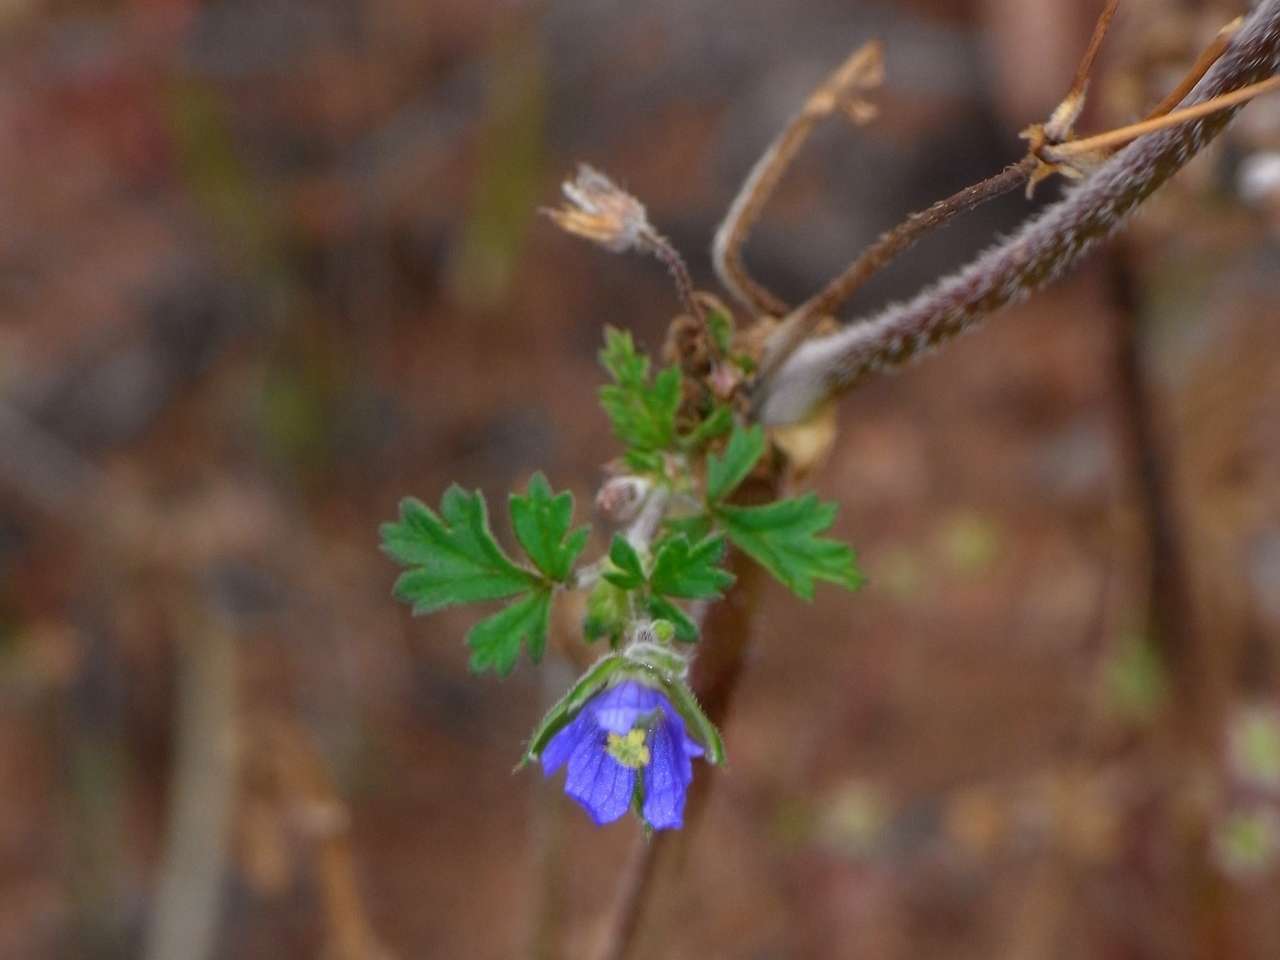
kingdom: Plantae
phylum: Tracheophyta
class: Magnoliopsida
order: Geraniales
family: Geraniaceae
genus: Erodium
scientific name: Erodium crinitum
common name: Eastern stork's-bill
